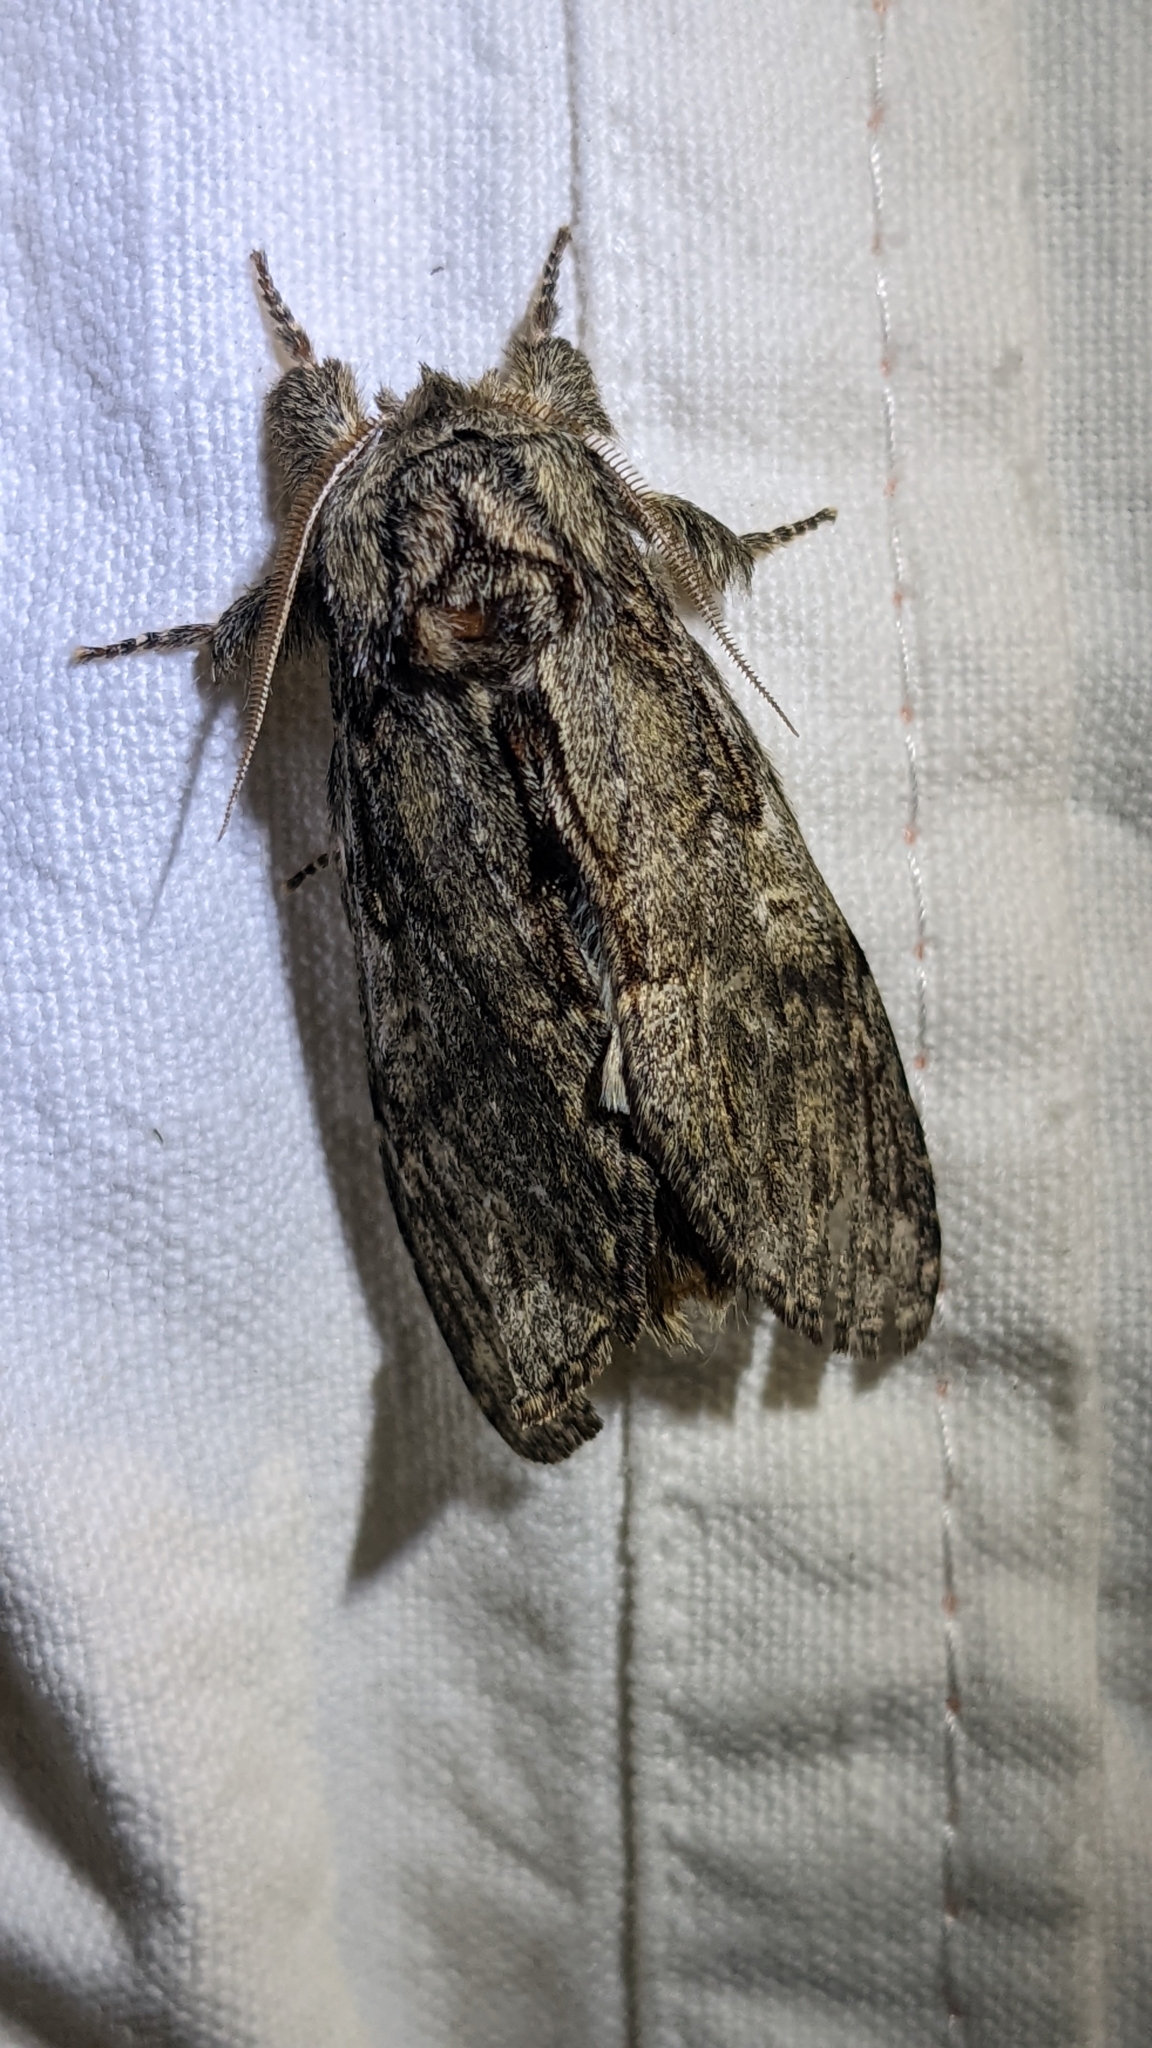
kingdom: Animalia
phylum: Arthropoda
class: Insecta
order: Lepidoptera
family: Notodontidae
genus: Peridea
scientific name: Peridea anceps
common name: Great prominent
